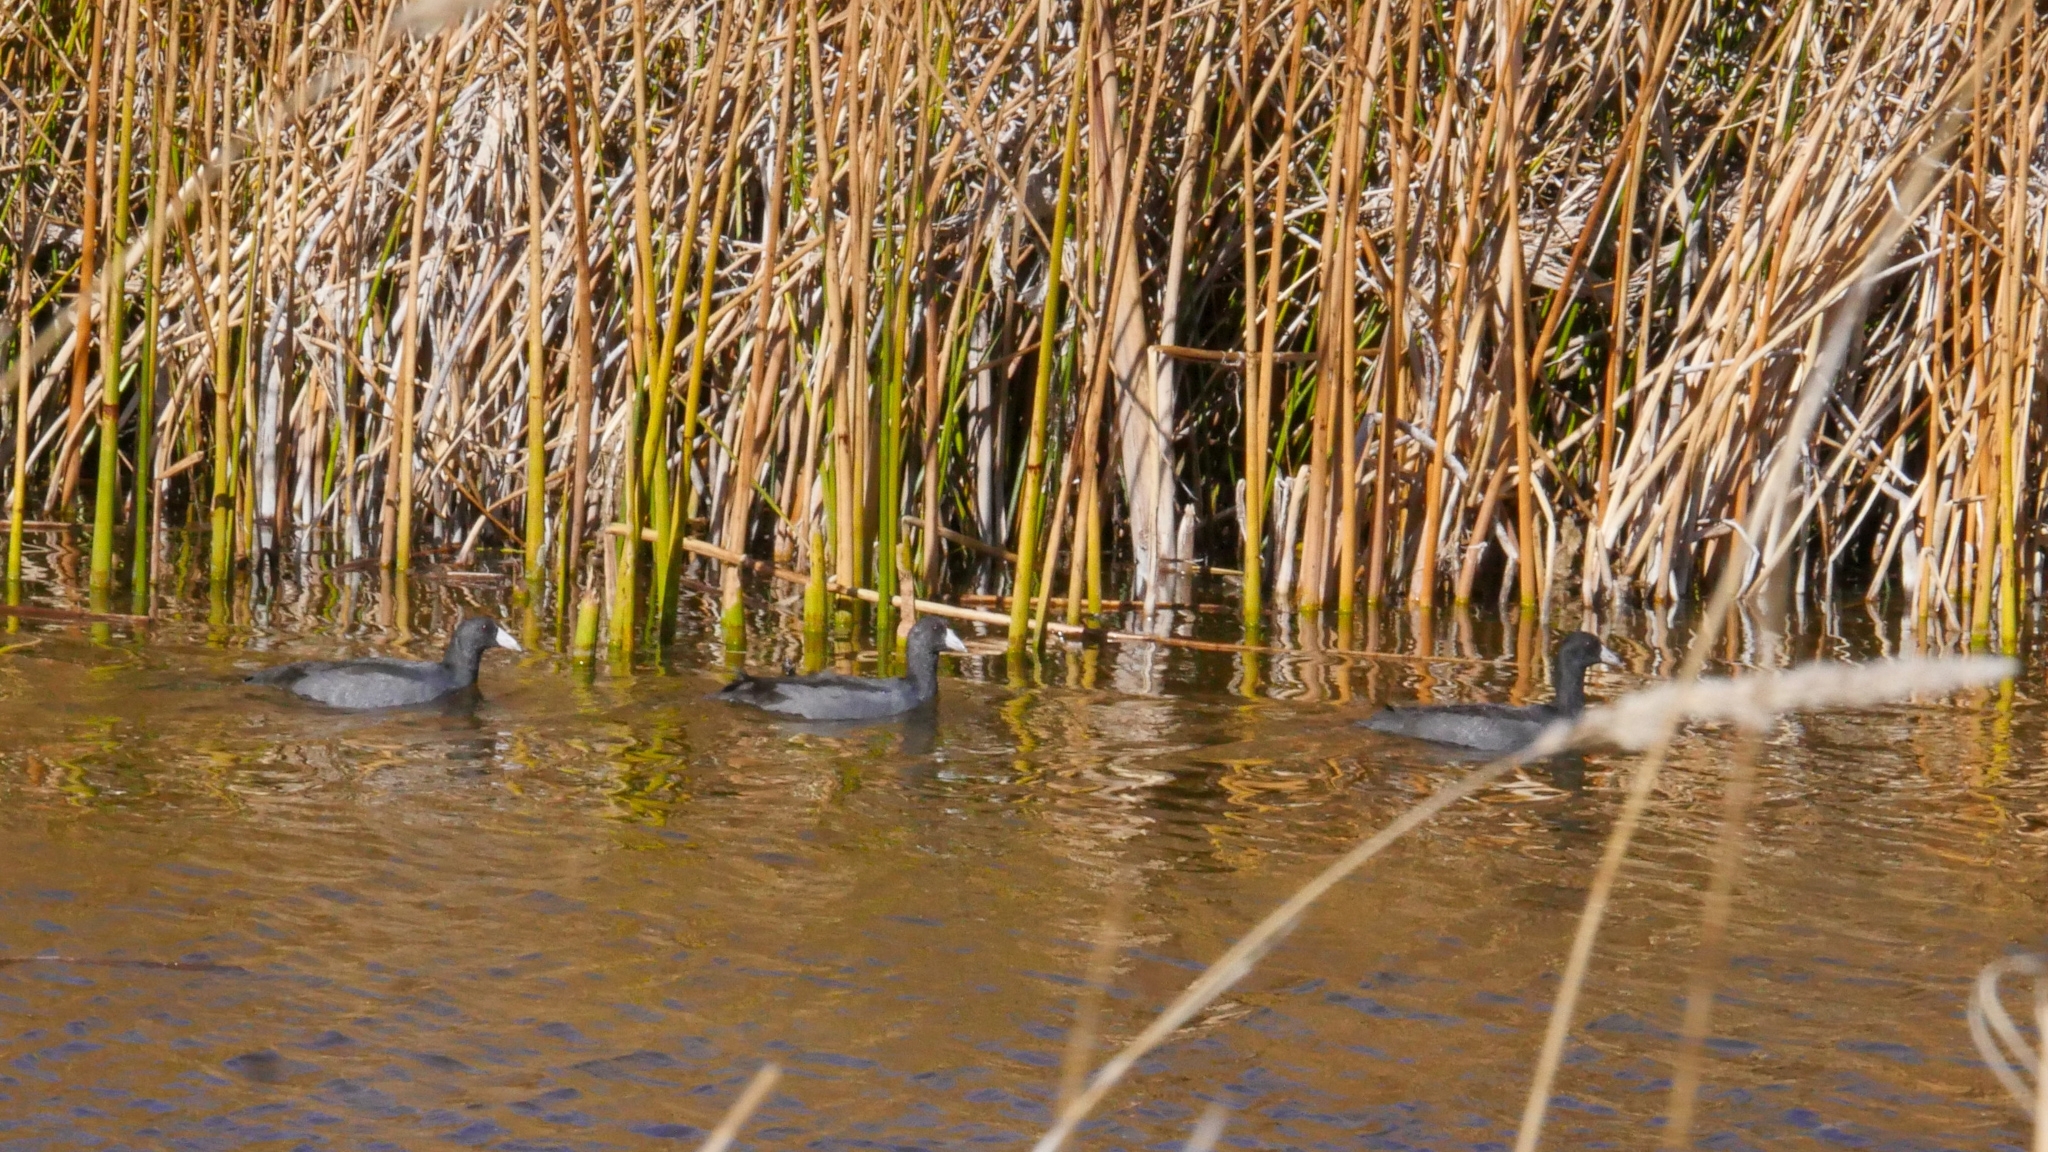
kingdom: Animalia
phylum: Chordata
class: Aves
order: Gruiformes
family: Rallidae
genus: Fulica
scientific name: Fulica americana
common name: American coot
